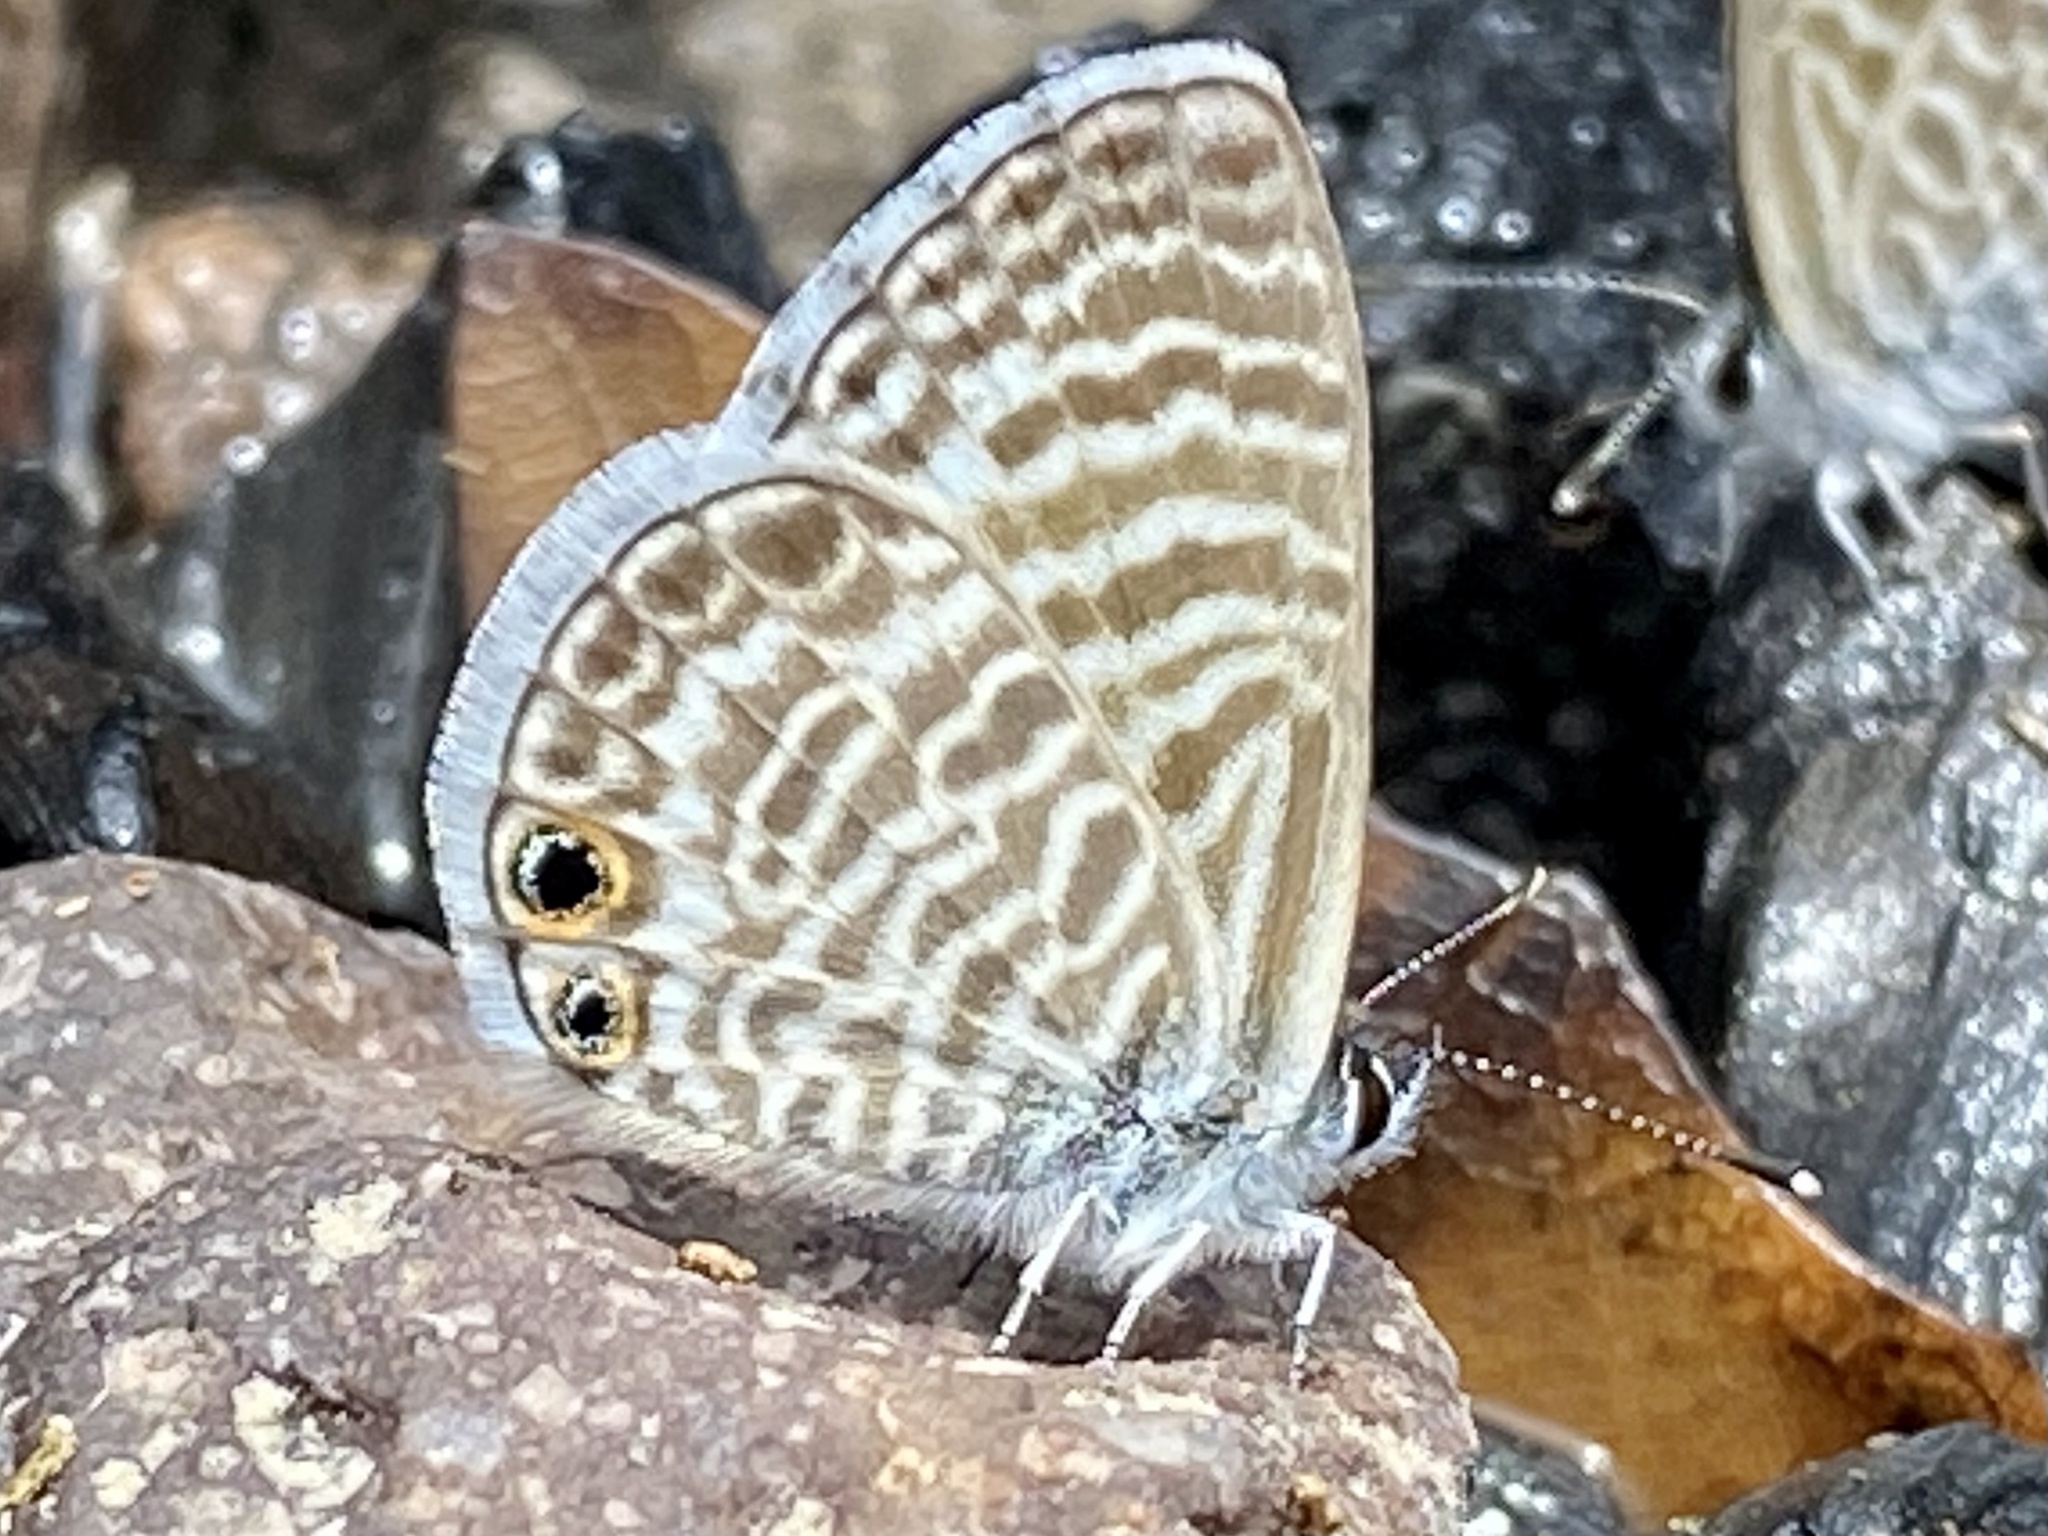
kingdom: Animalia
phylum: Arthropoda
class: Insecta
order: Lepidoptera
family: Lycaenidae
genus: Leptotes
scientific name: Leptotes marina
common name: Marine blue
